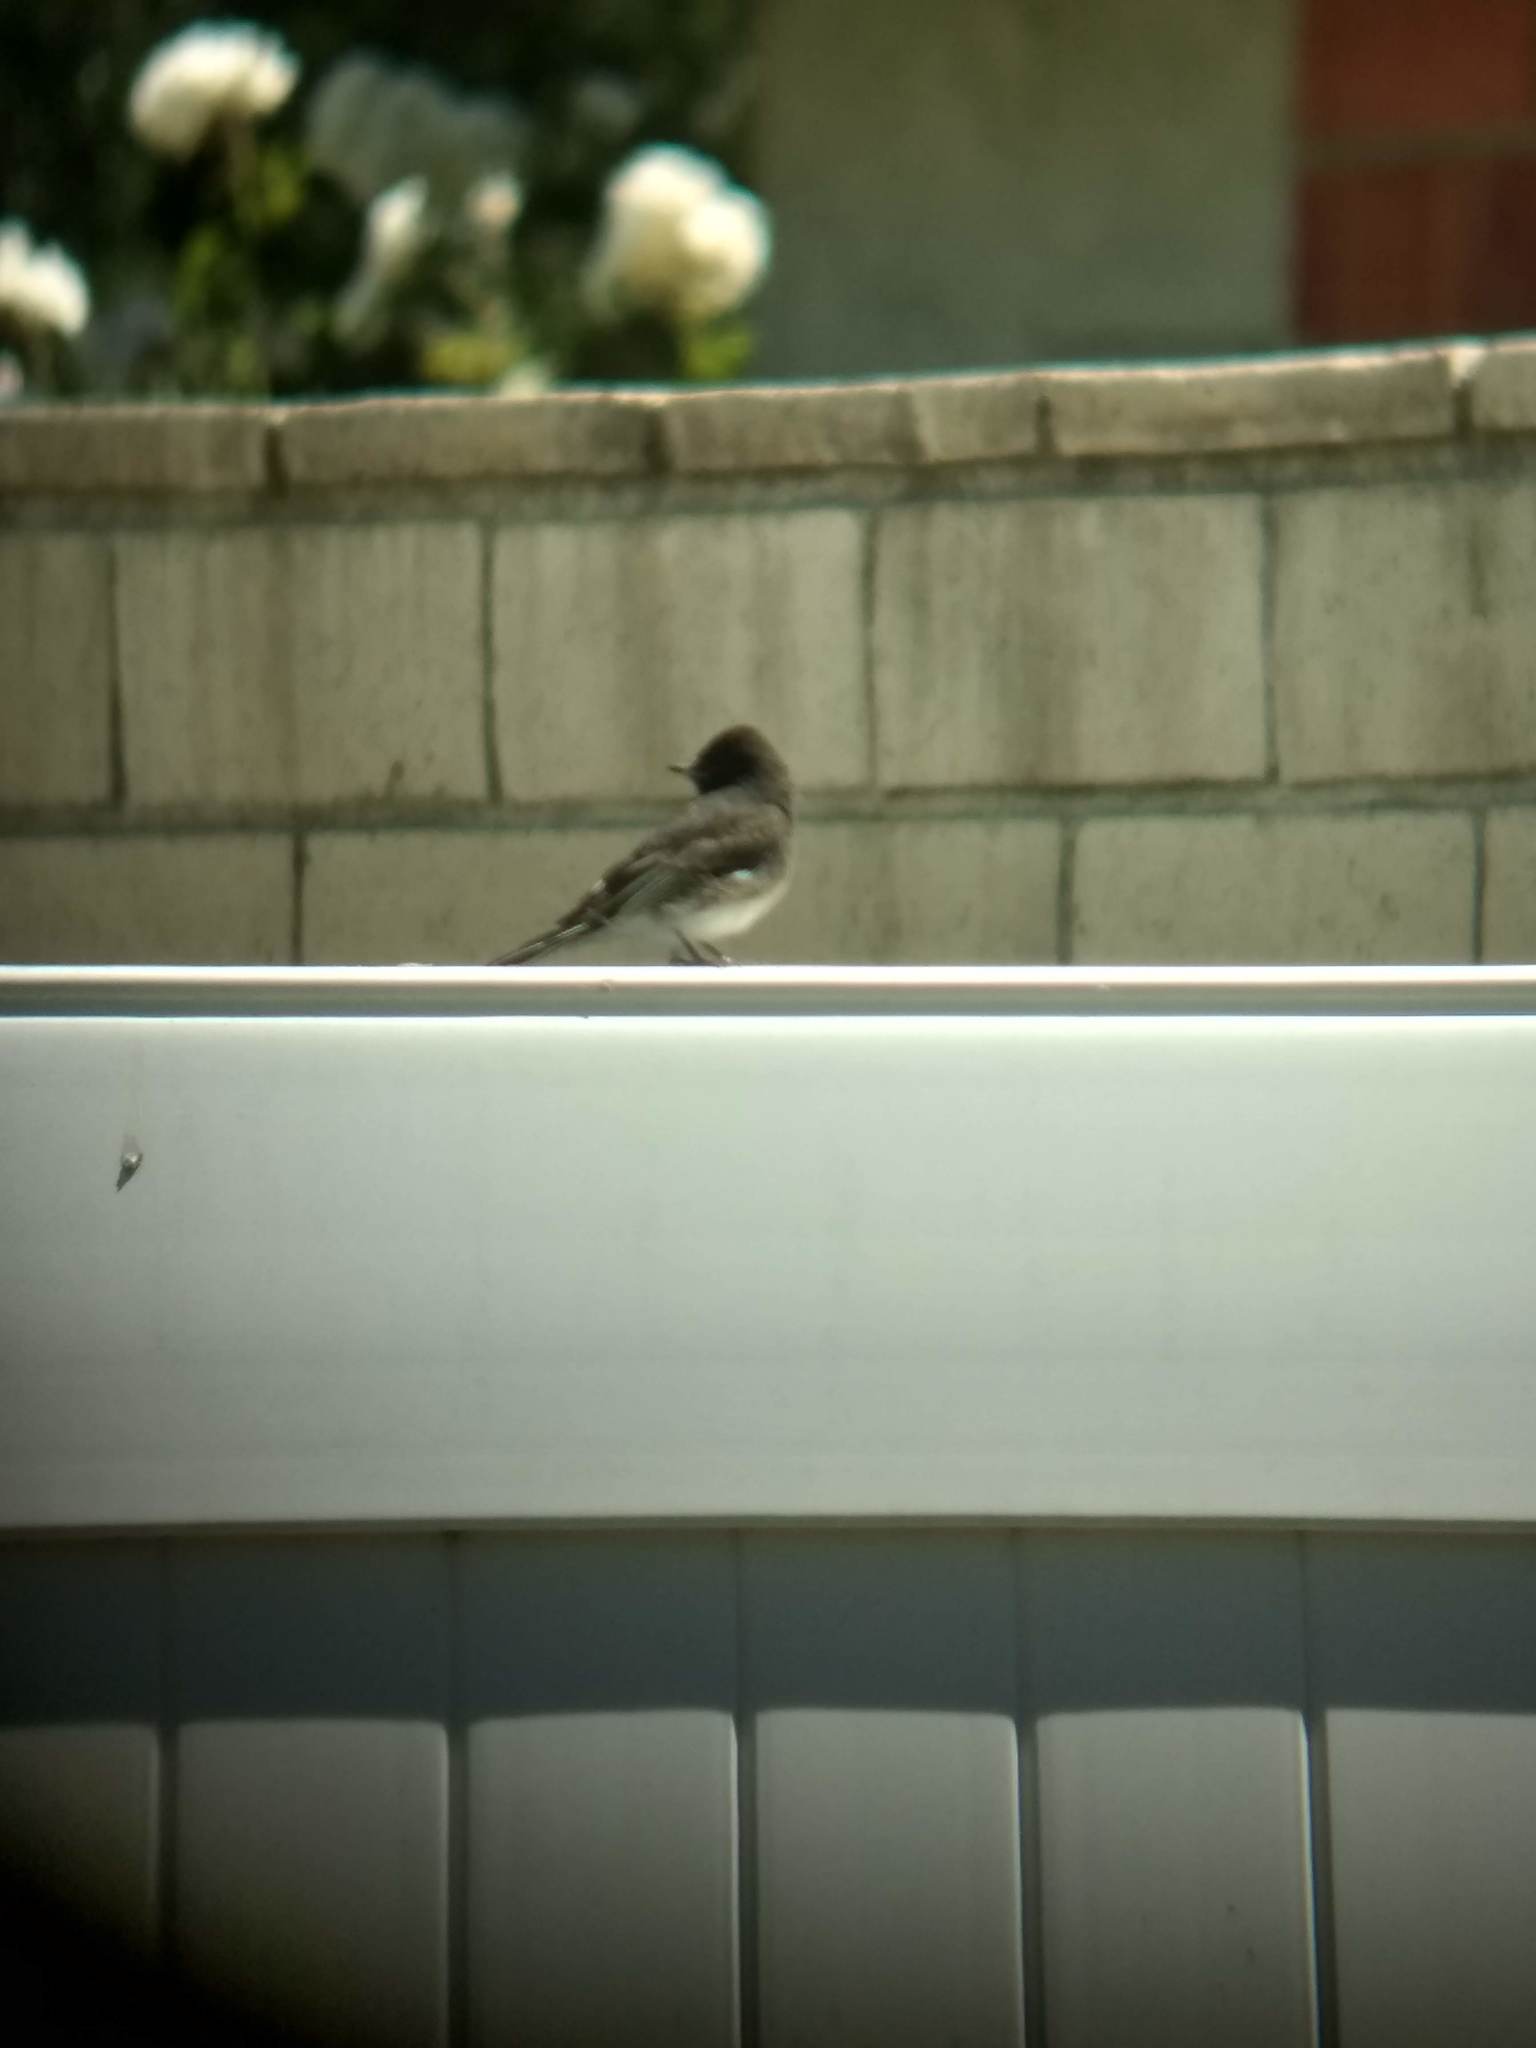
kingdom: Animalia
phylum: Chordata
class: Aves
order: Passeriformes
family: Tyrannidae
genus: Sayornis
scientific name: Sayornis nigricans
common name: Black phoebe
